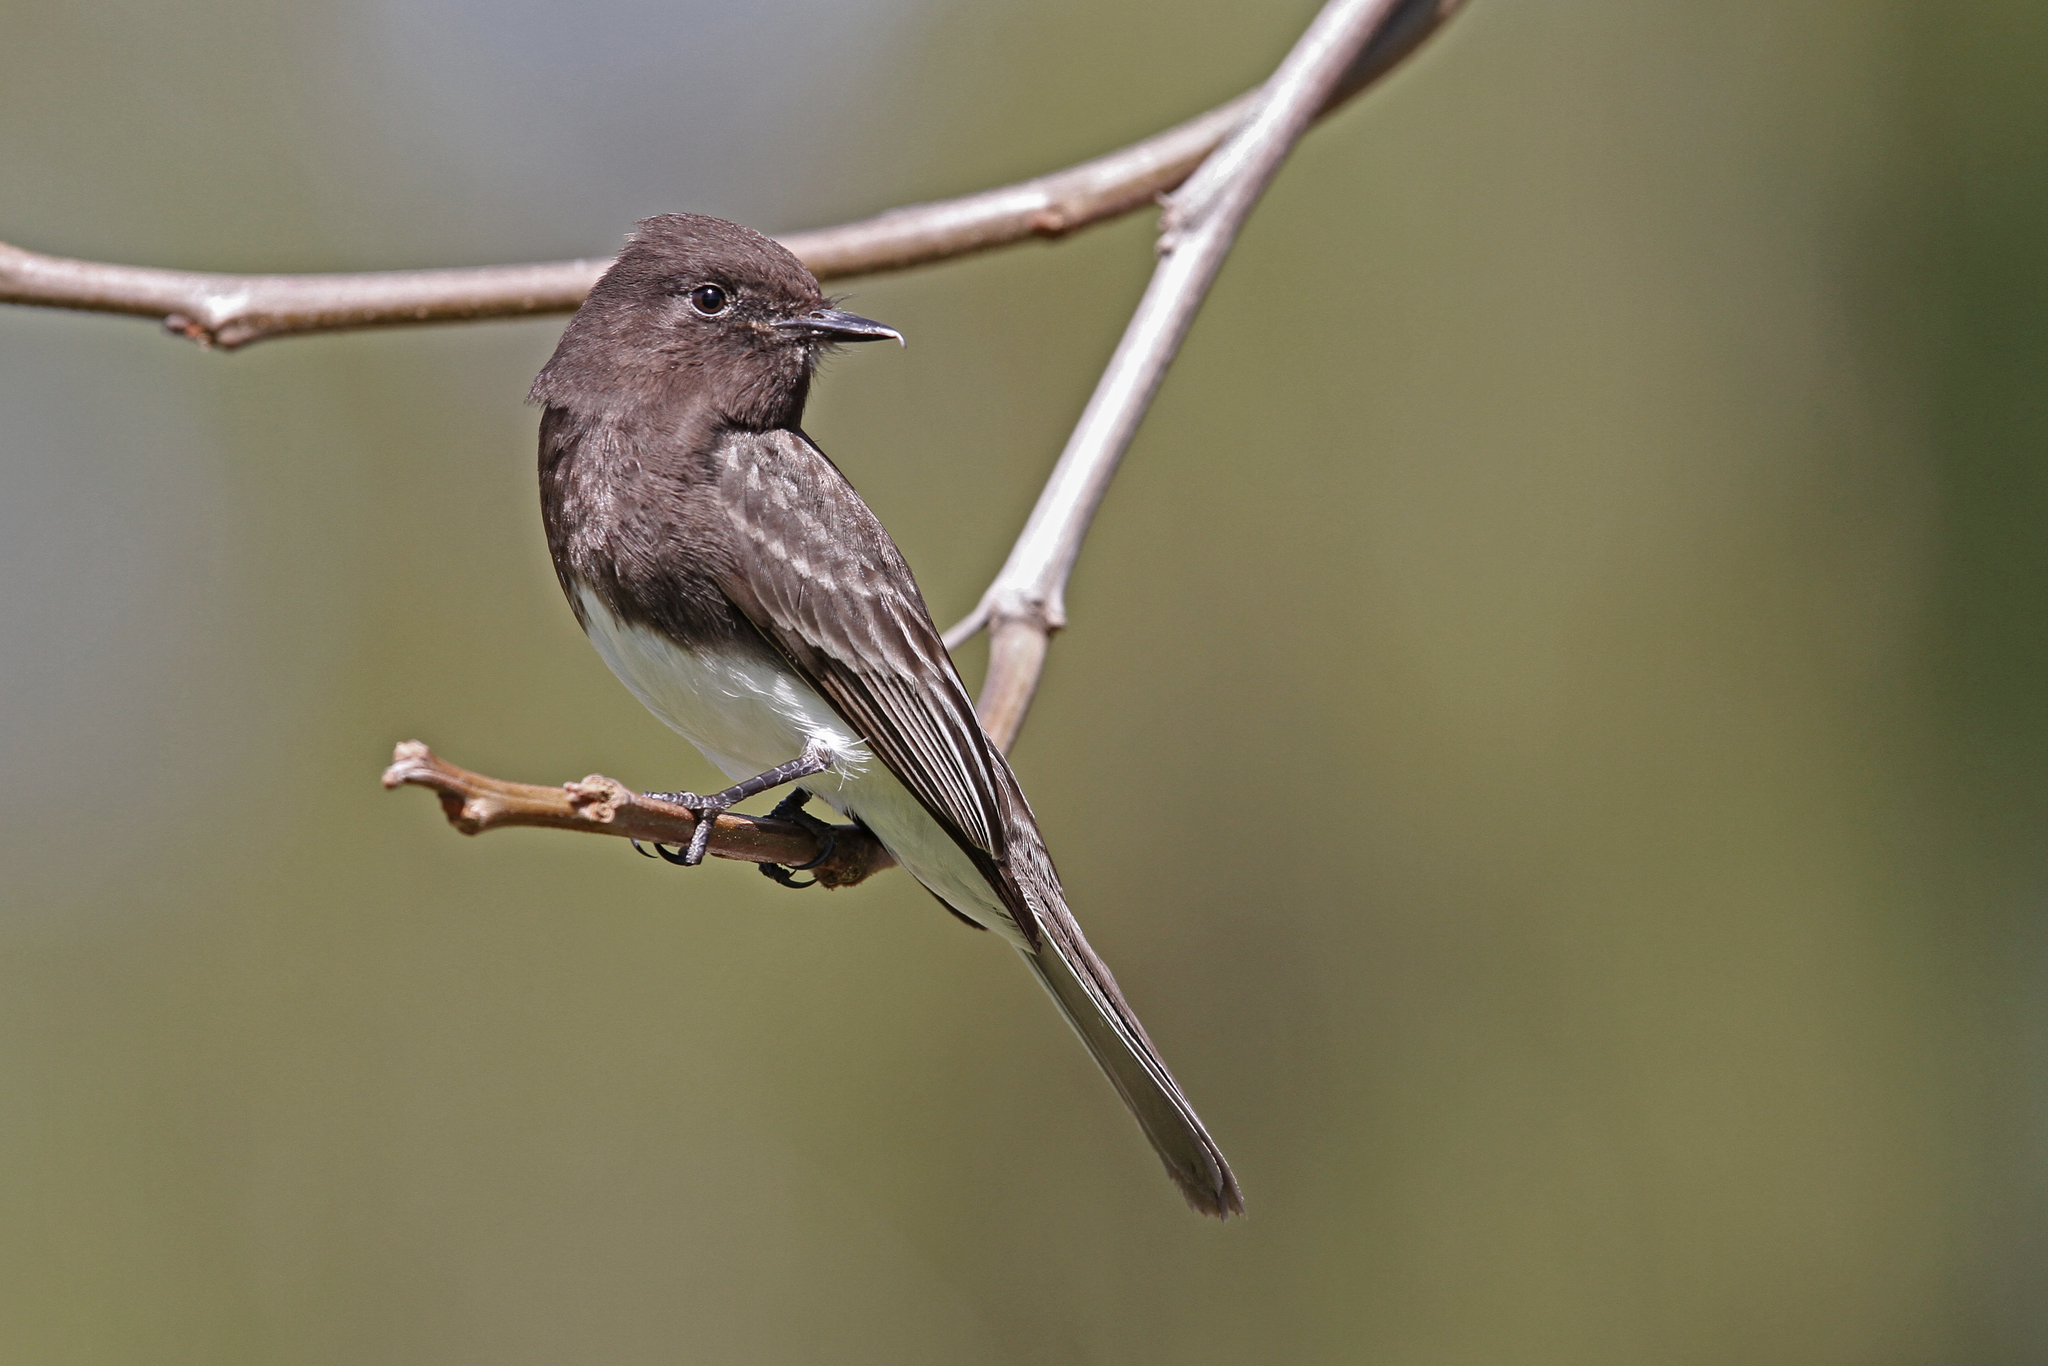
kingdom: Animalia
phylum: Chordata
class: Aves
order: Passeriformes
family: Tyrannidae
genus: Sayornis
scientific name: Sayornis nigricans
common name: Black phoebe
